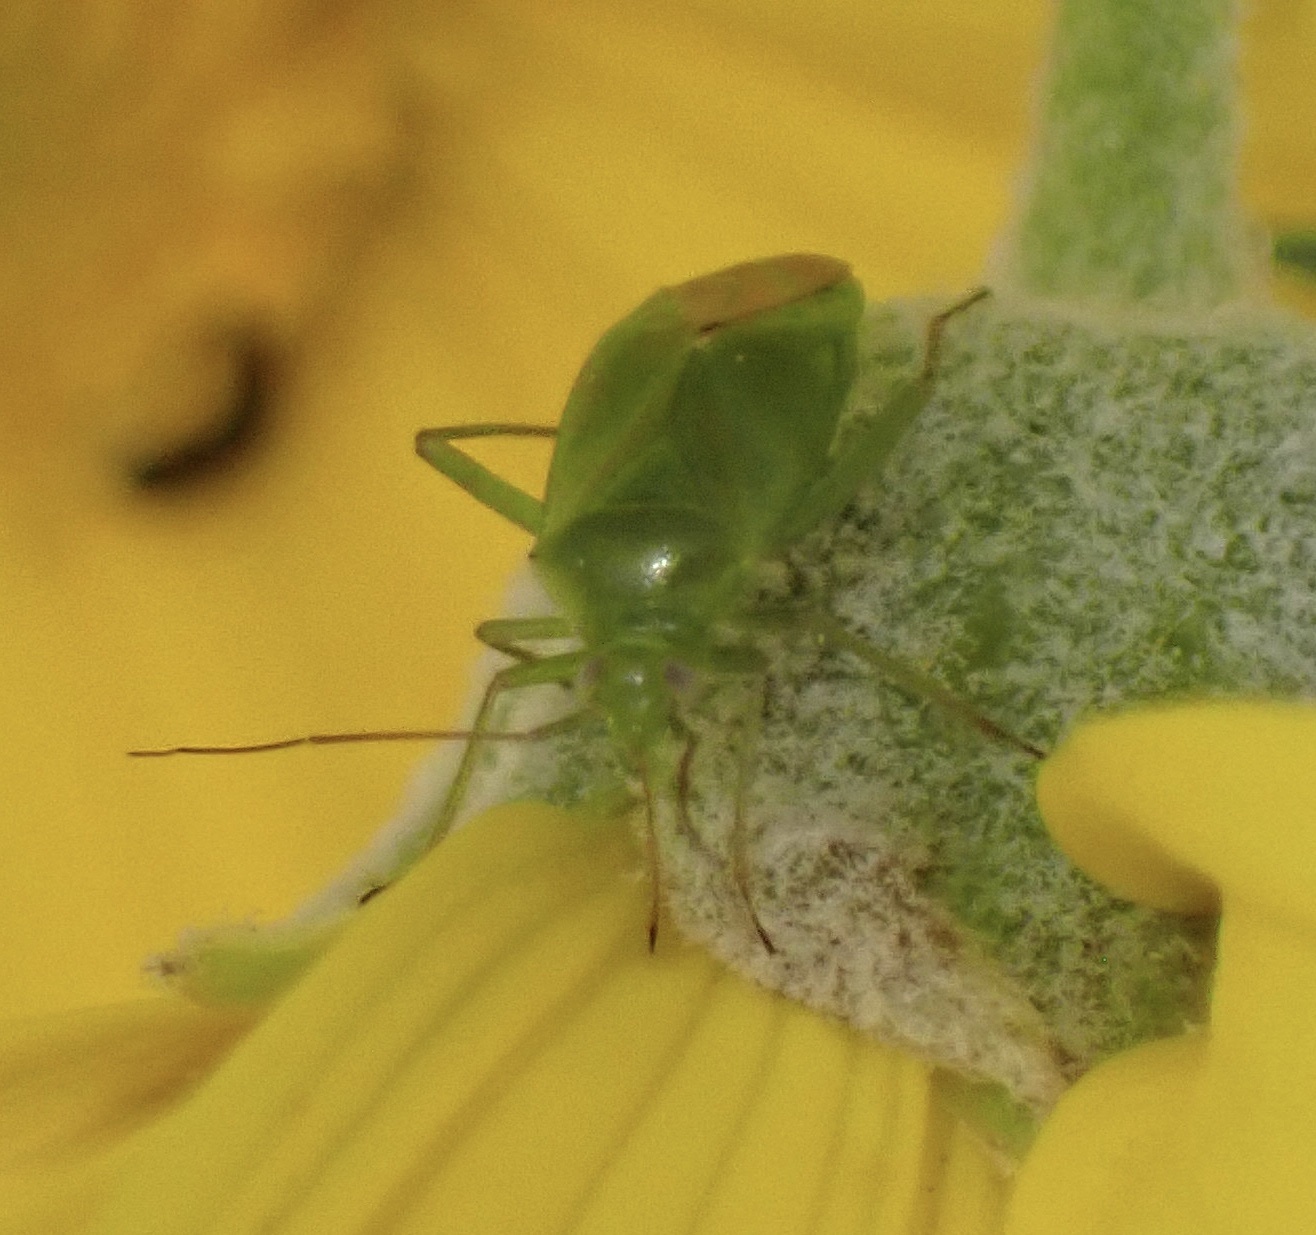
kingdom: Animalia
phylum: Arthropoda
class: Insecta
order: Hemiptera
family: Miridae
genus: Lygocoris
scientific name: Lygocoris pabulinus
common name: Common green capsid
